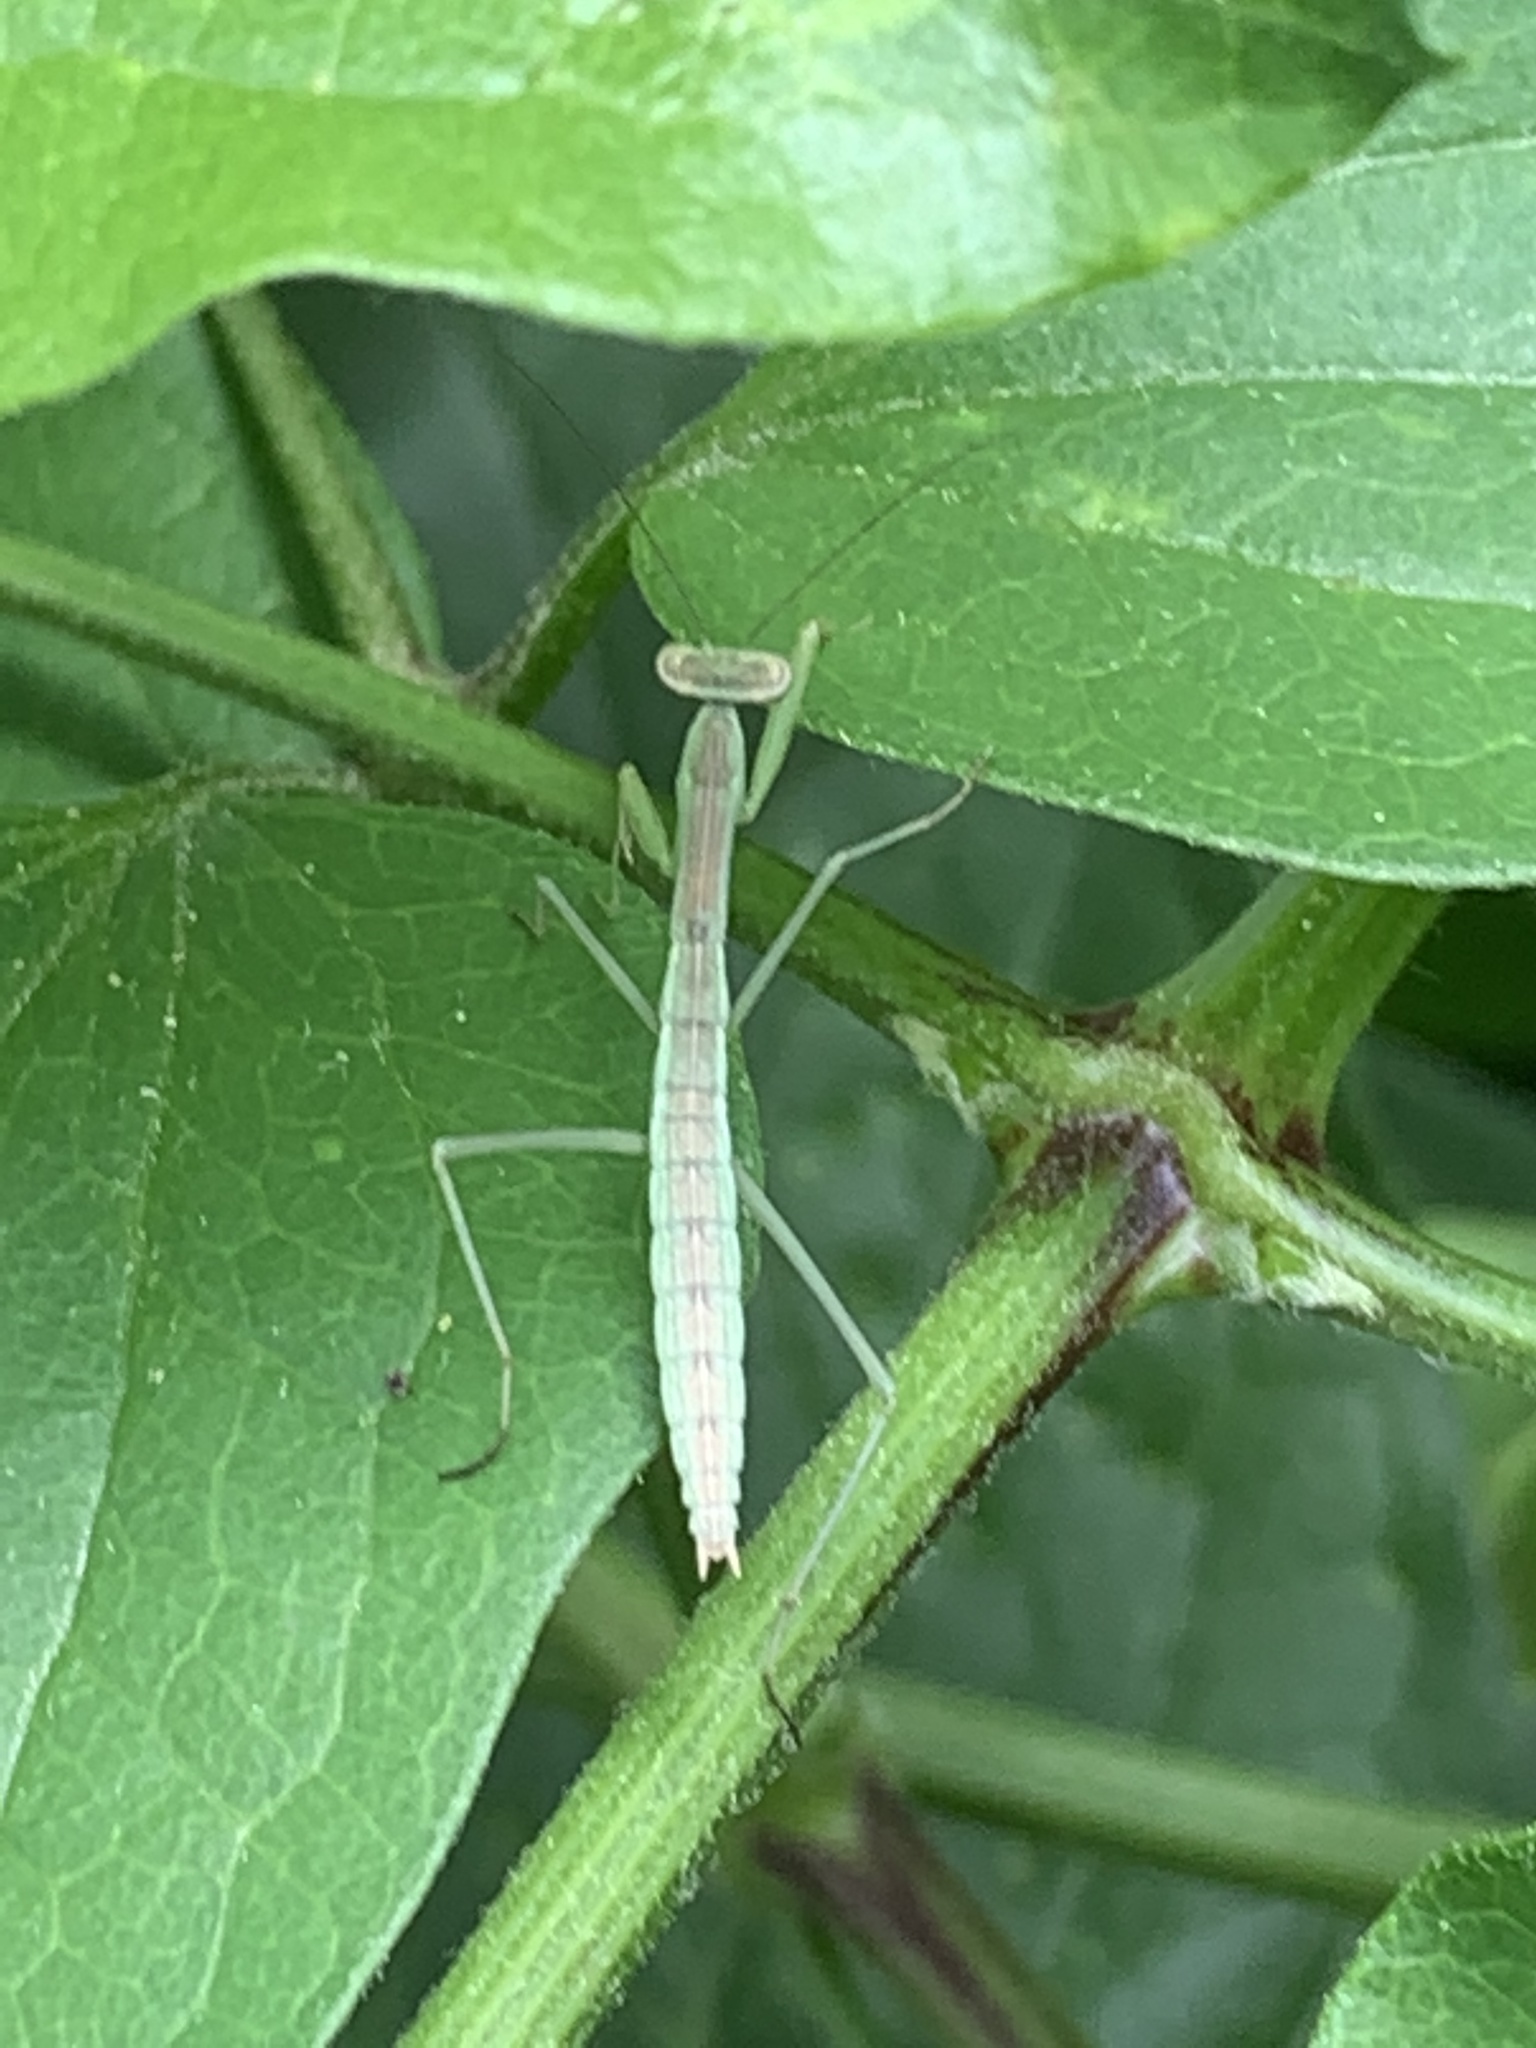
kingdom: Animalia
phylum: Arthropoda
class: Insecta
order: Mantodea
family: Mantidae
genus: Tenodera
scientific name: Tenodera sinensis
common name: Chinese mantis
